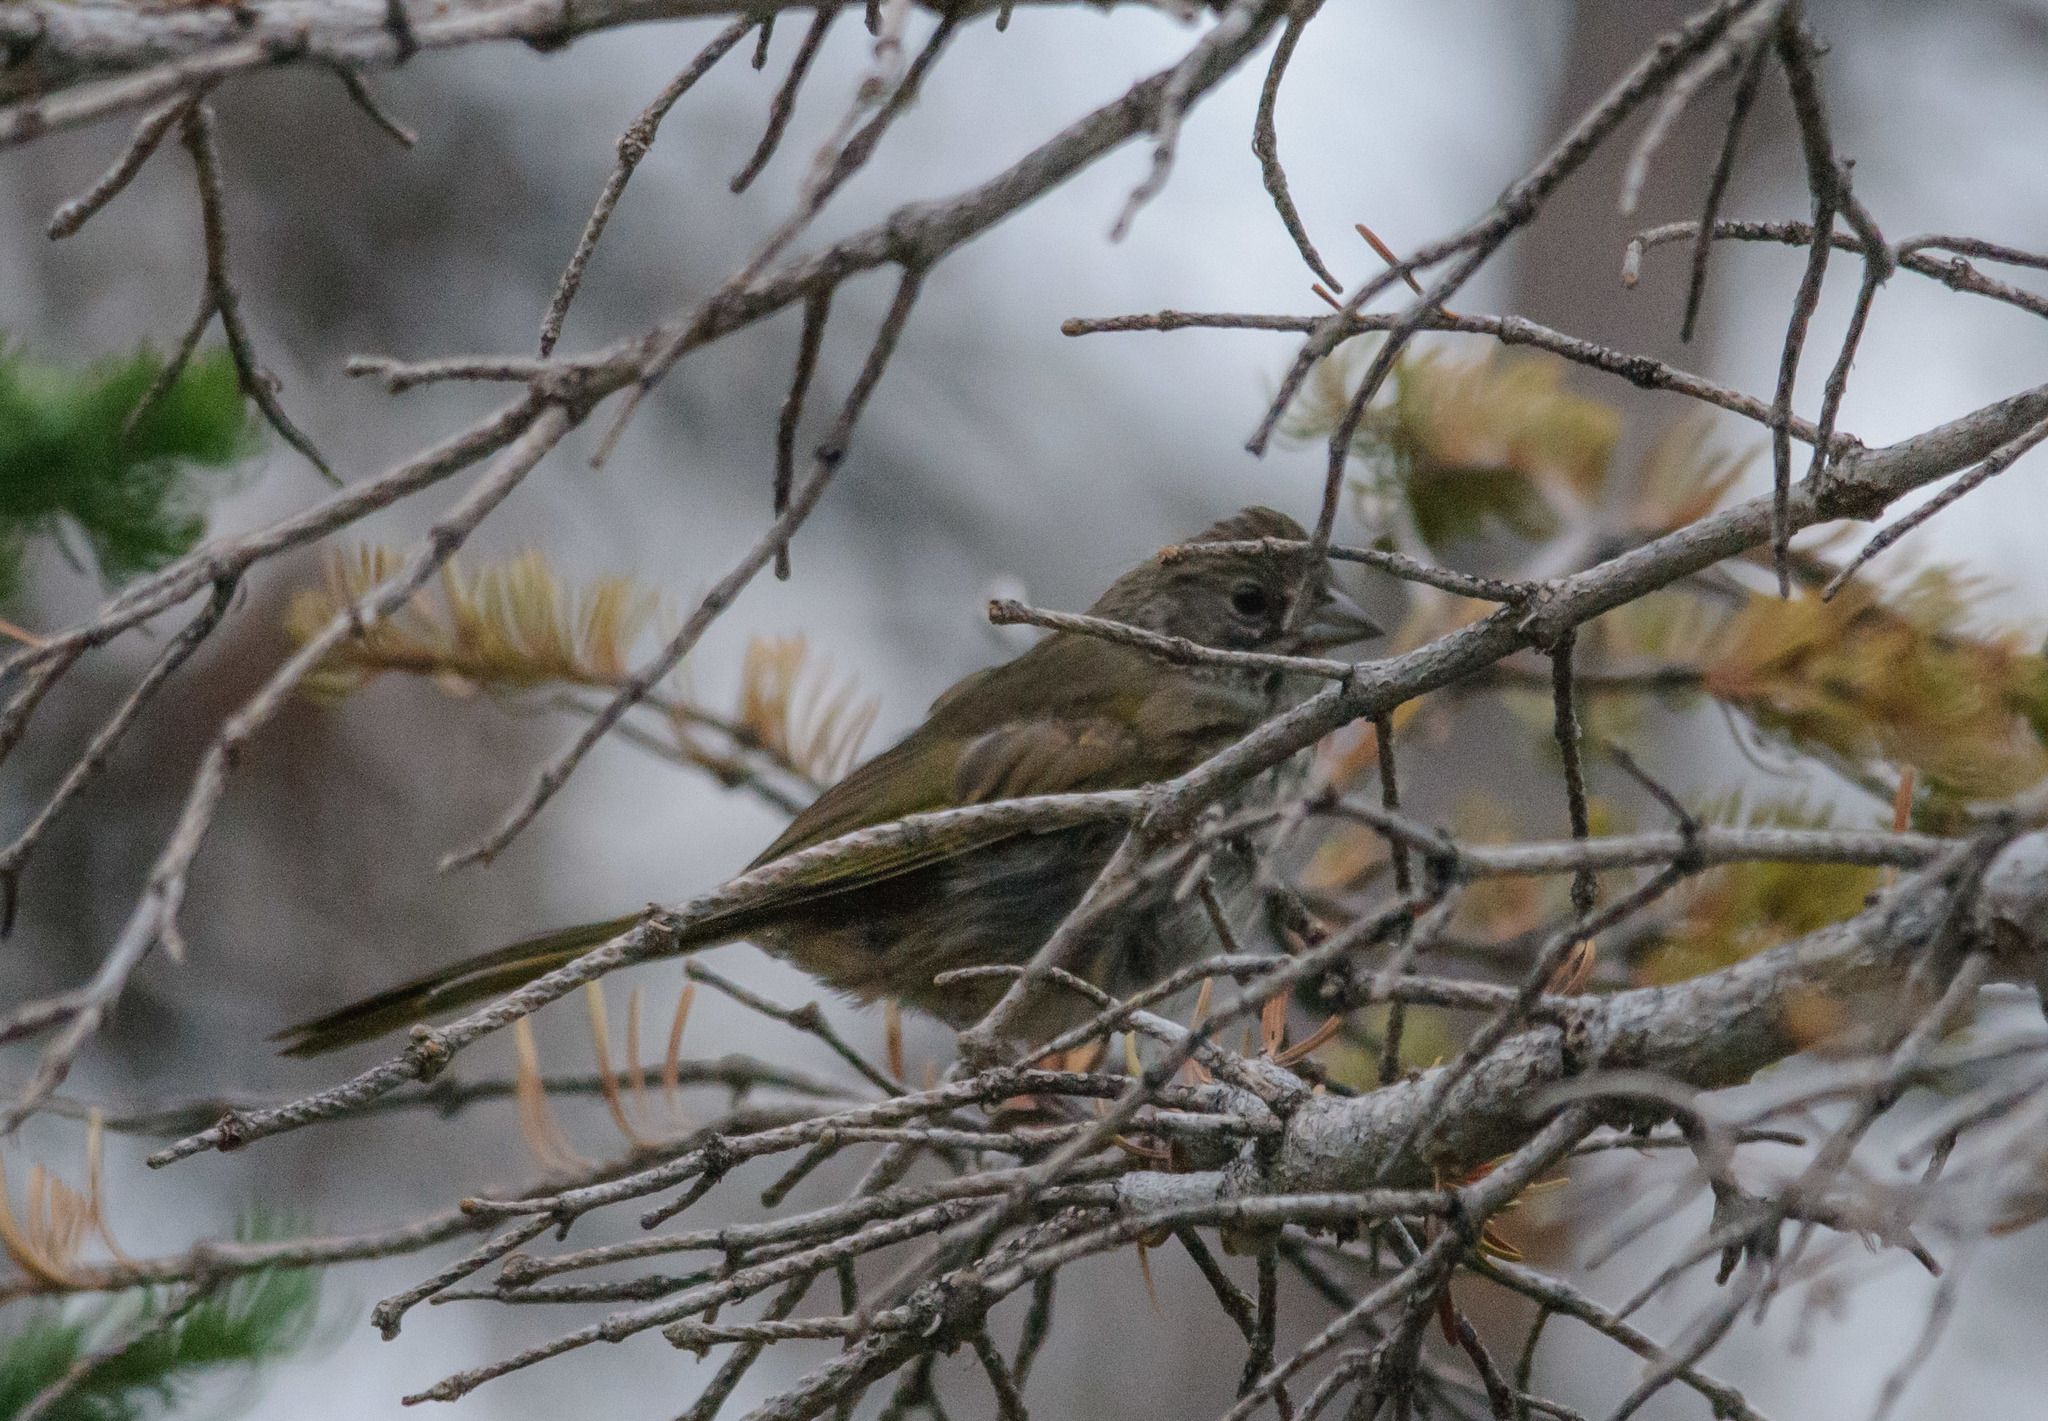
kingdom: Animalia
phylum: Chordata
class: Aves
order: Passeriformes
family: Passerellidae
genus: Pipilo
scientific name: Pipilo chlorurus
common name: Green-tailed towhee
